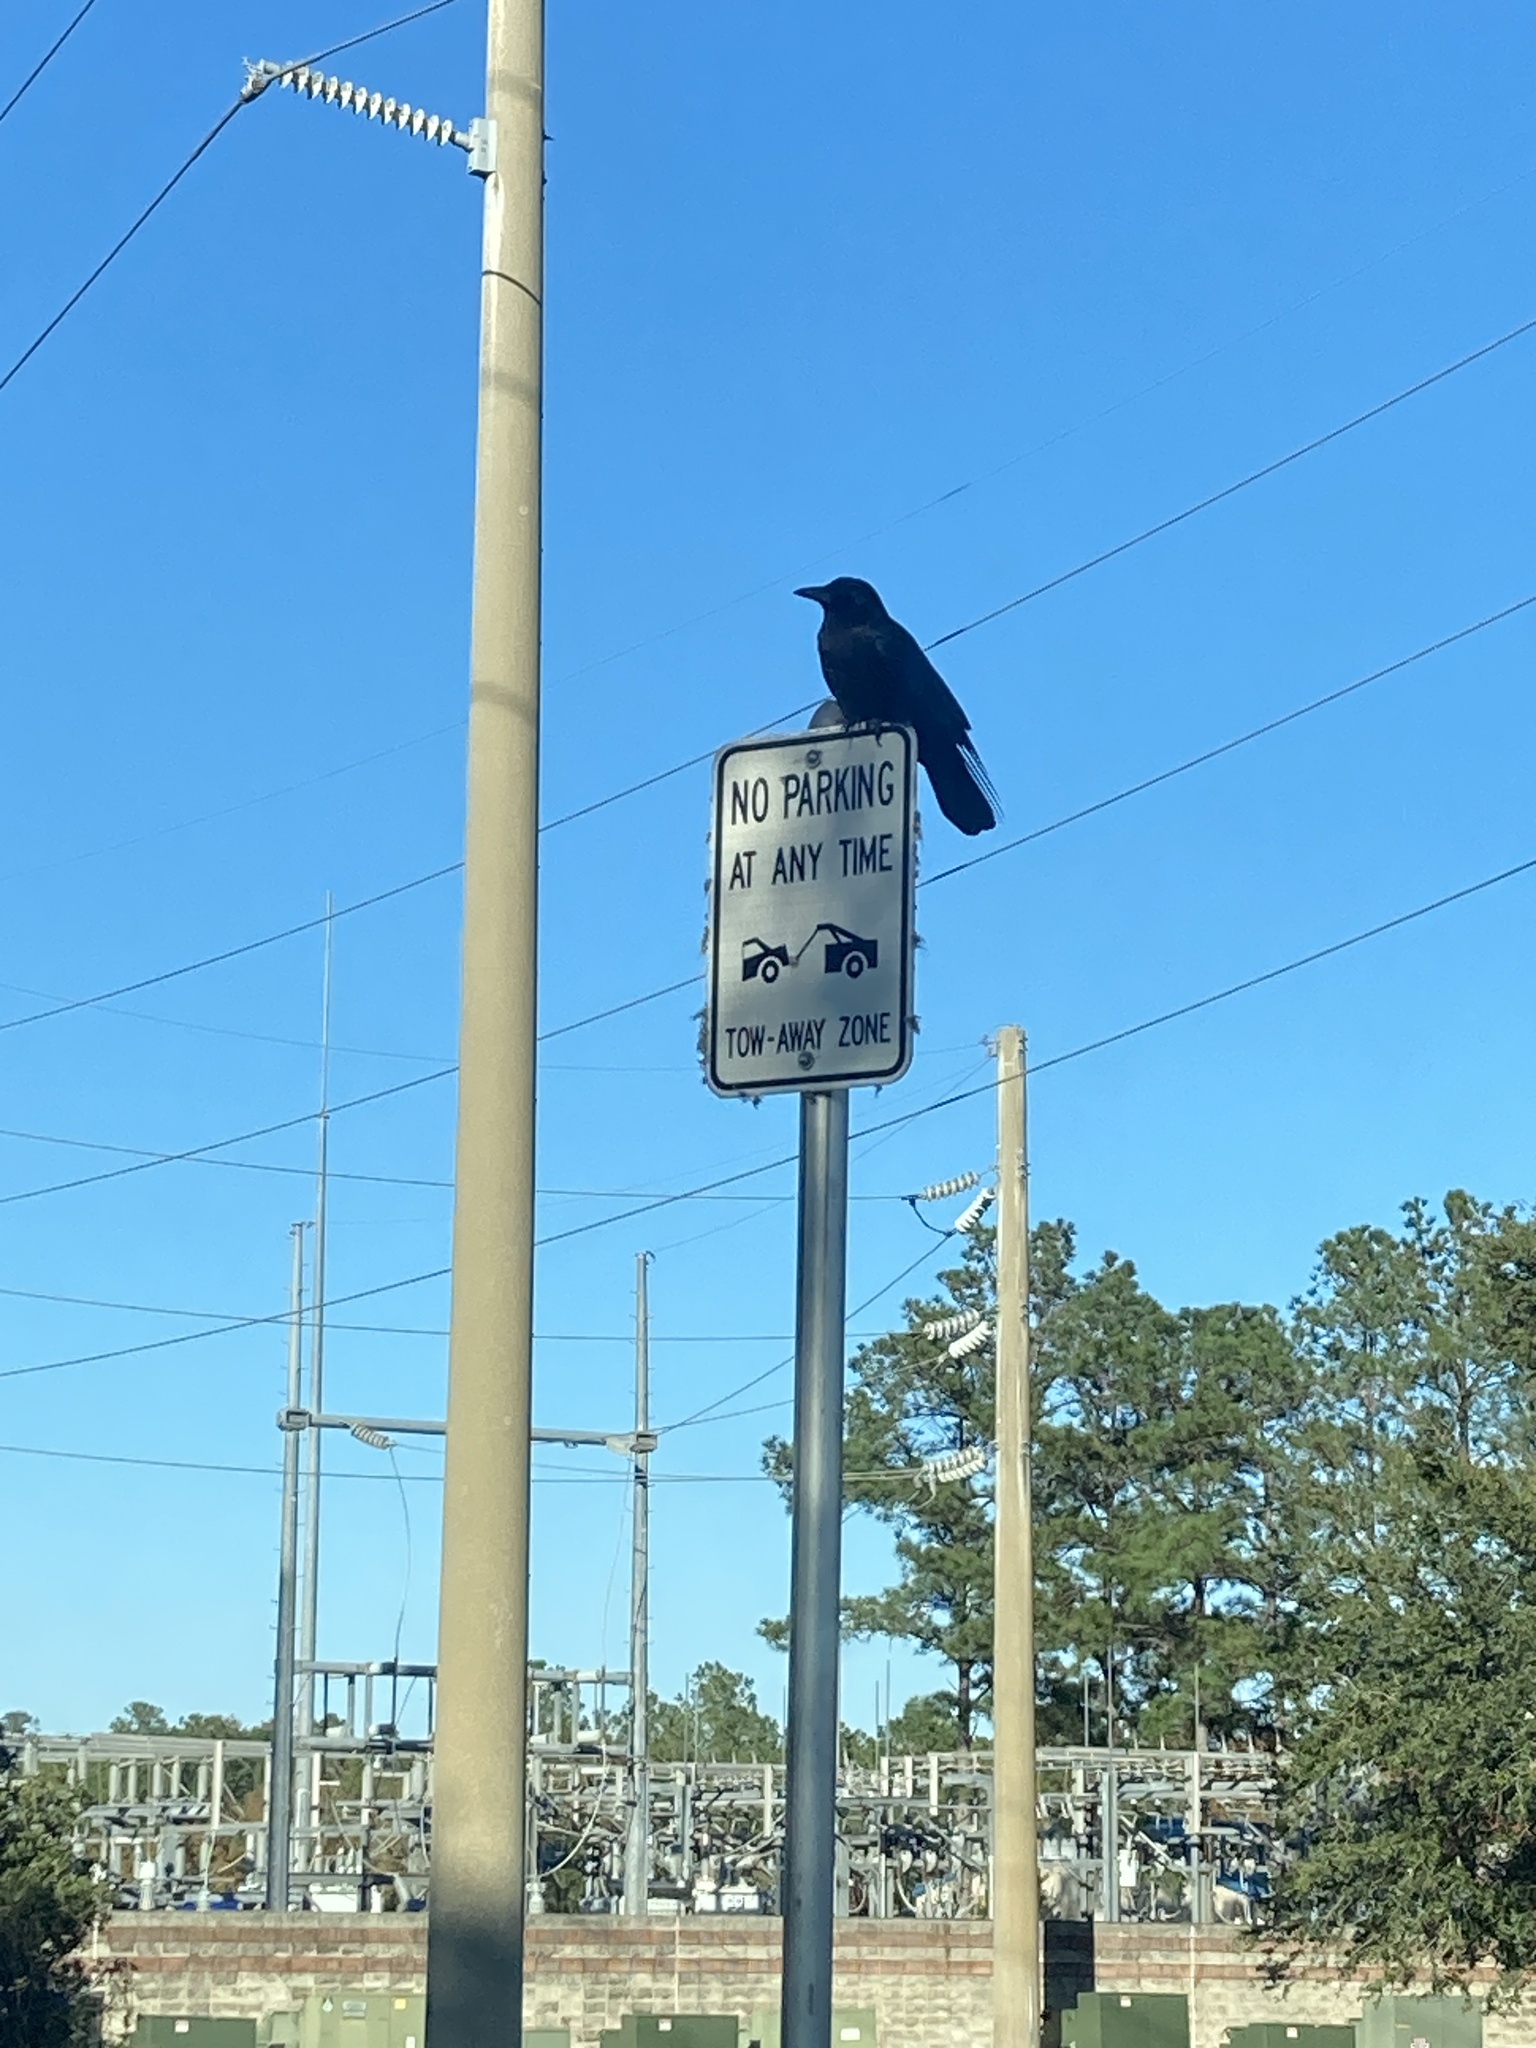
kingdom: Animalia
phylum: Chordata
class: Aves
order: Passeriformes
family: Corvidae
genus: Corvus
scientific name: Corvus
